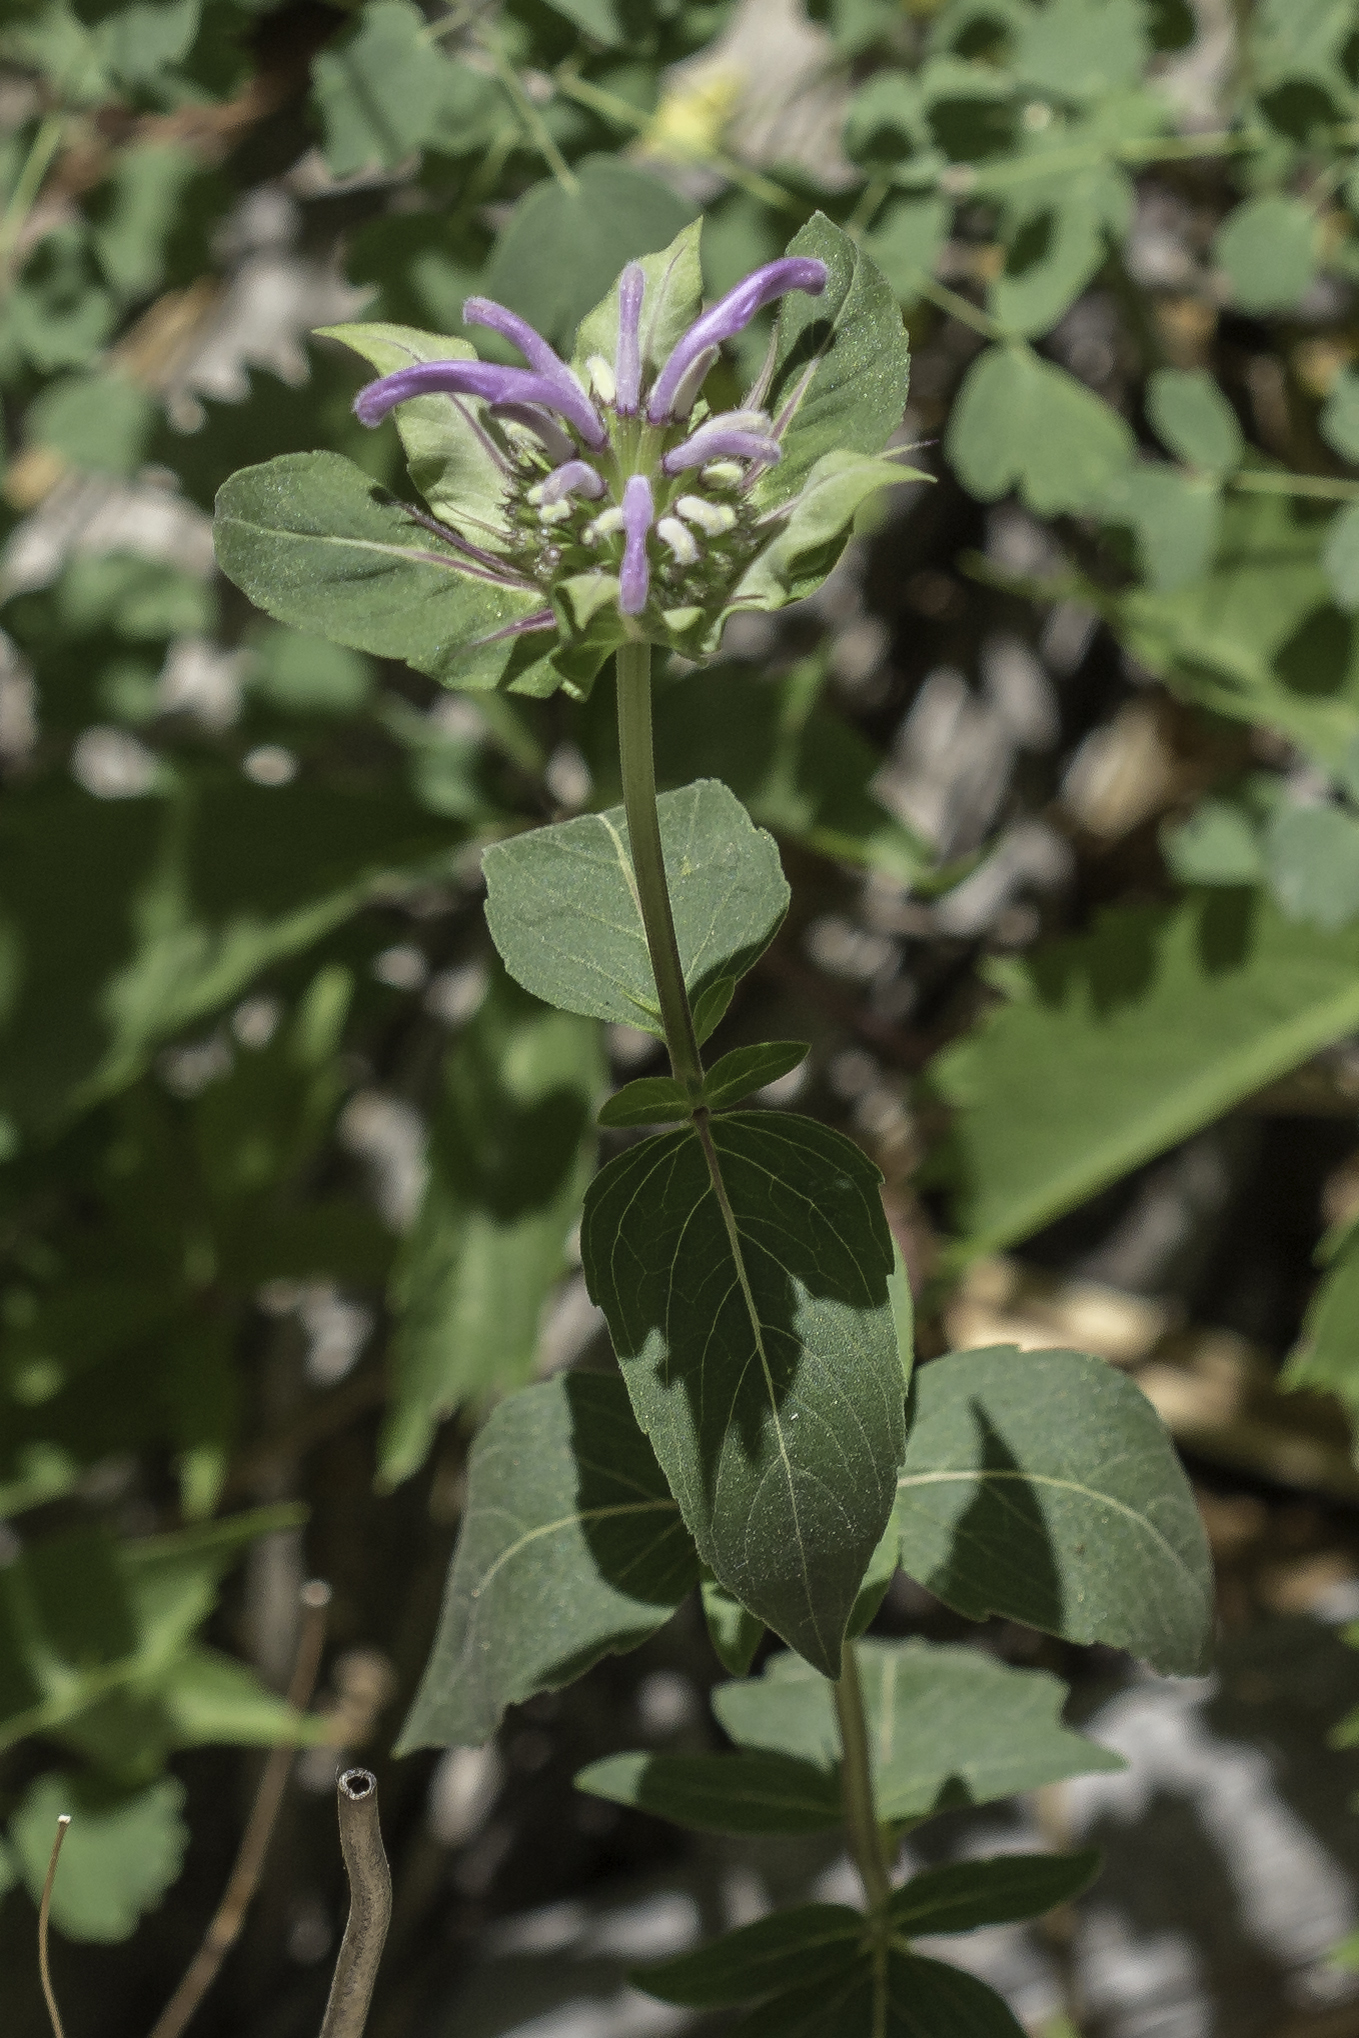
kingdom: Plantae
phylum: Tracheophyta
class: Magnoliopsida
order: Lamiales
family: Lamiaceae
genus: Monarda
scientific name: Monarda fistulosa
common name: Purple beebalm
